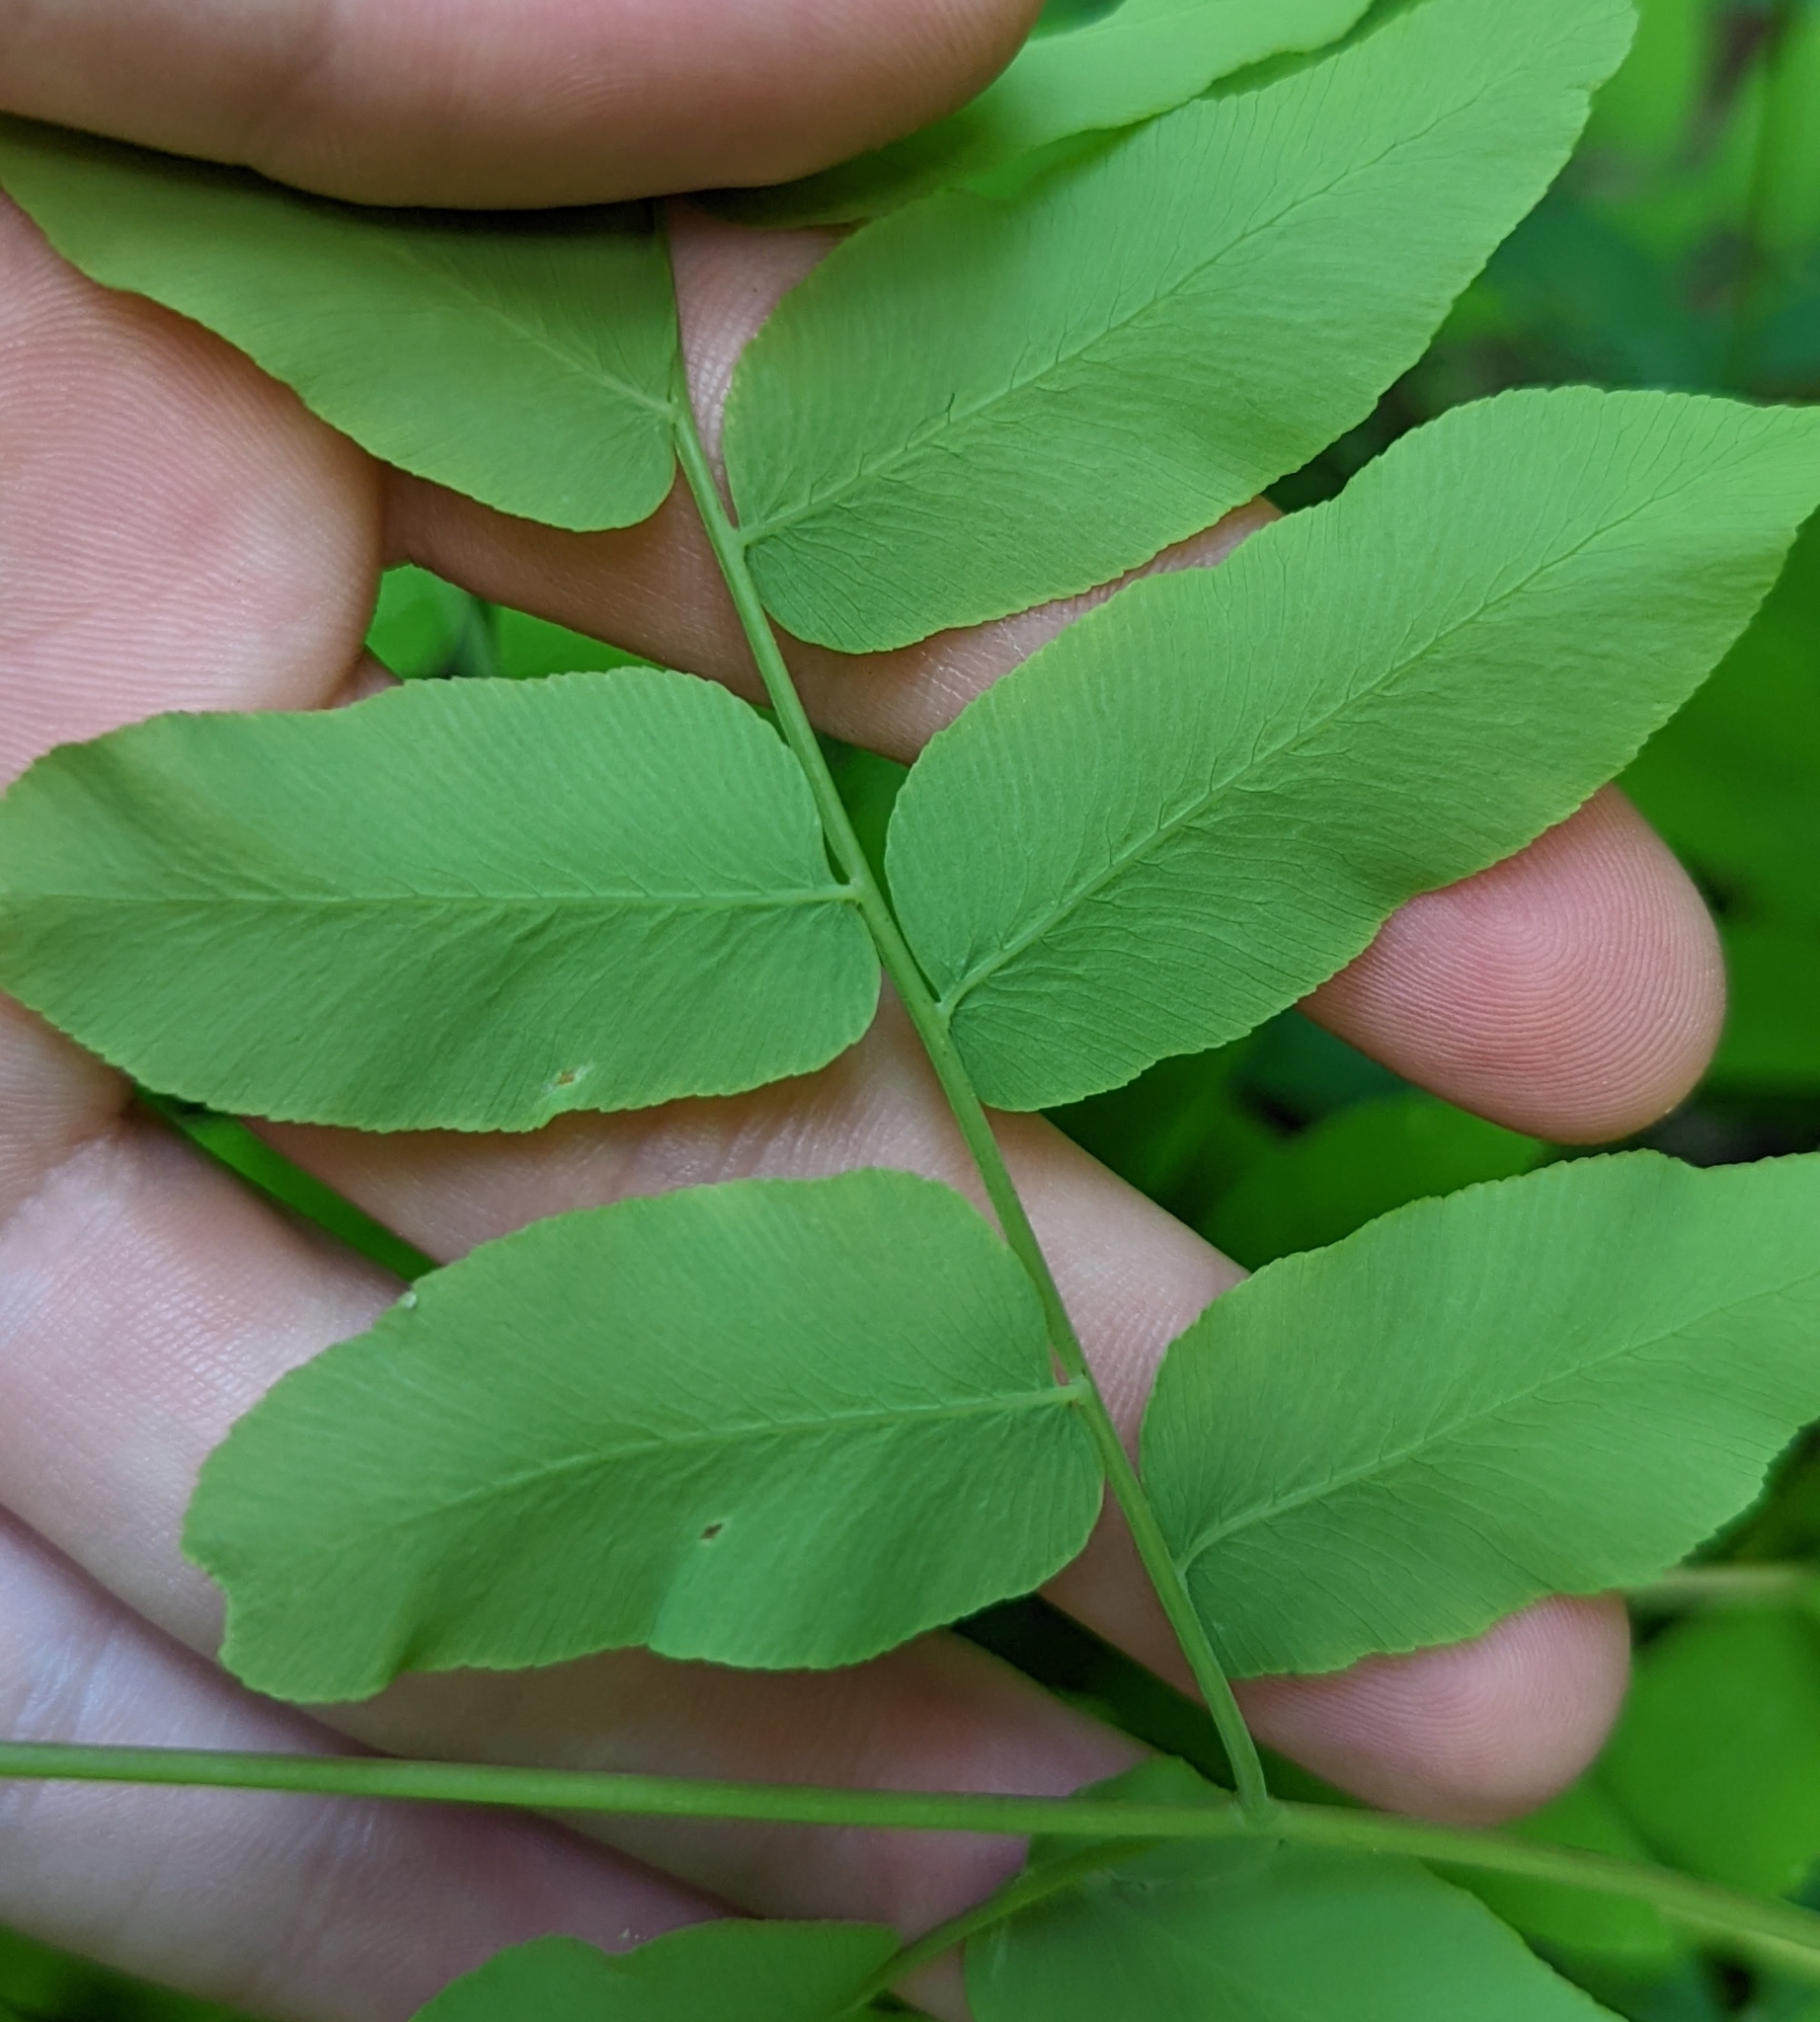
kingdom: Plantae
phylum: Tracheophyta
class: Polypodiopsida
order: Osmundales
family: Osmundaceae
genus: Osmunda
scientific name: Osmunda spectabilis
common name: American royal fern
